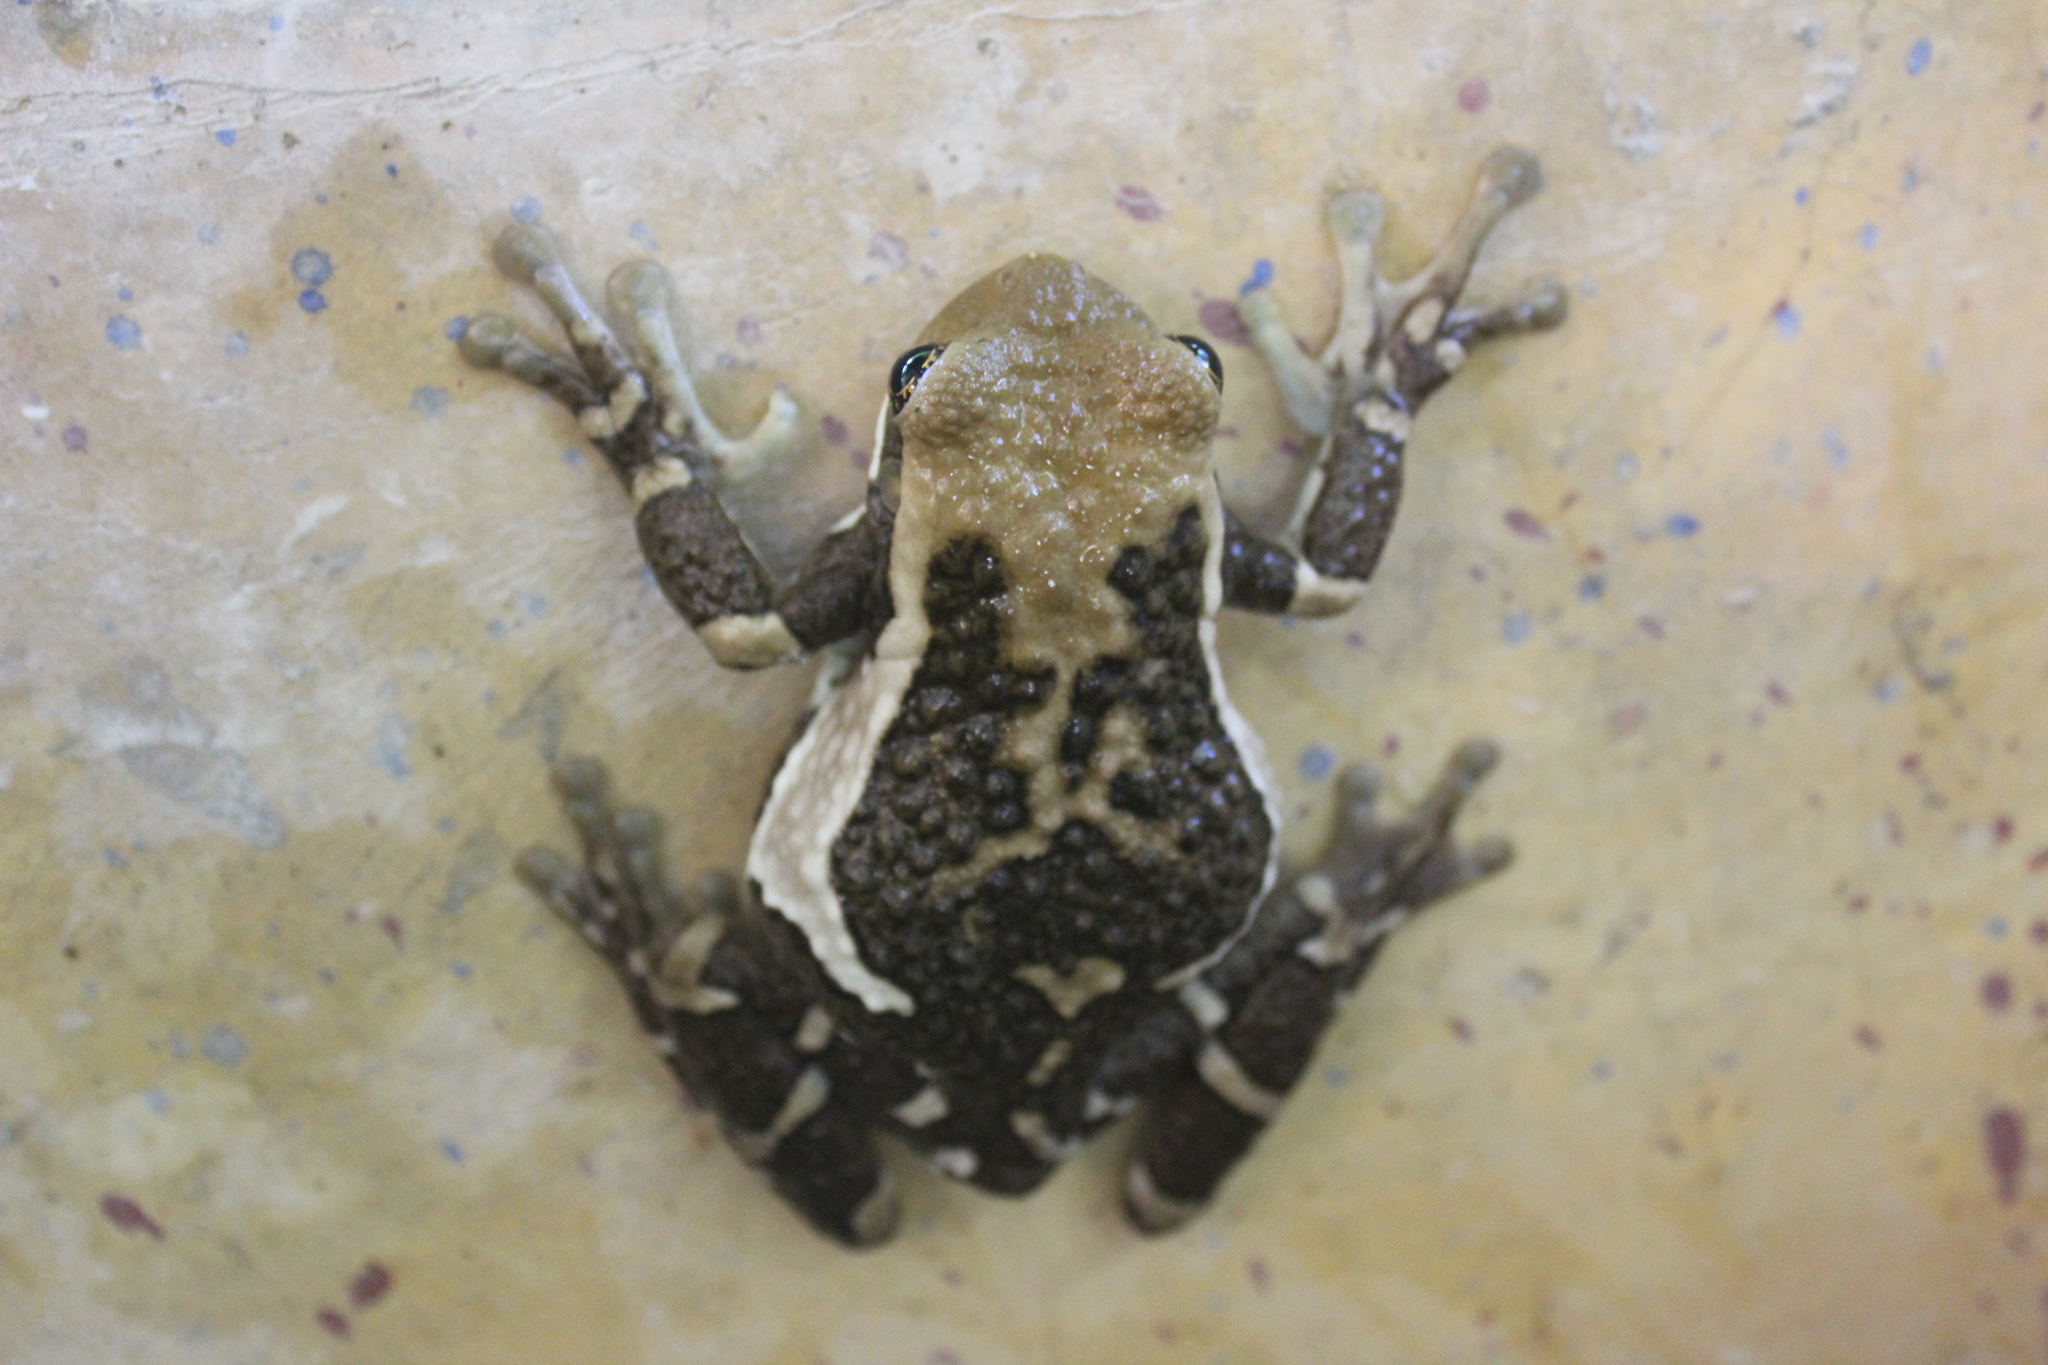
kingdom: Animalia
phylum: Chordata
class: Amphibia
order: Anura
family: Hylidae
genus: Trachycephalus
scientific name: Trachycephalus vermiculatus
